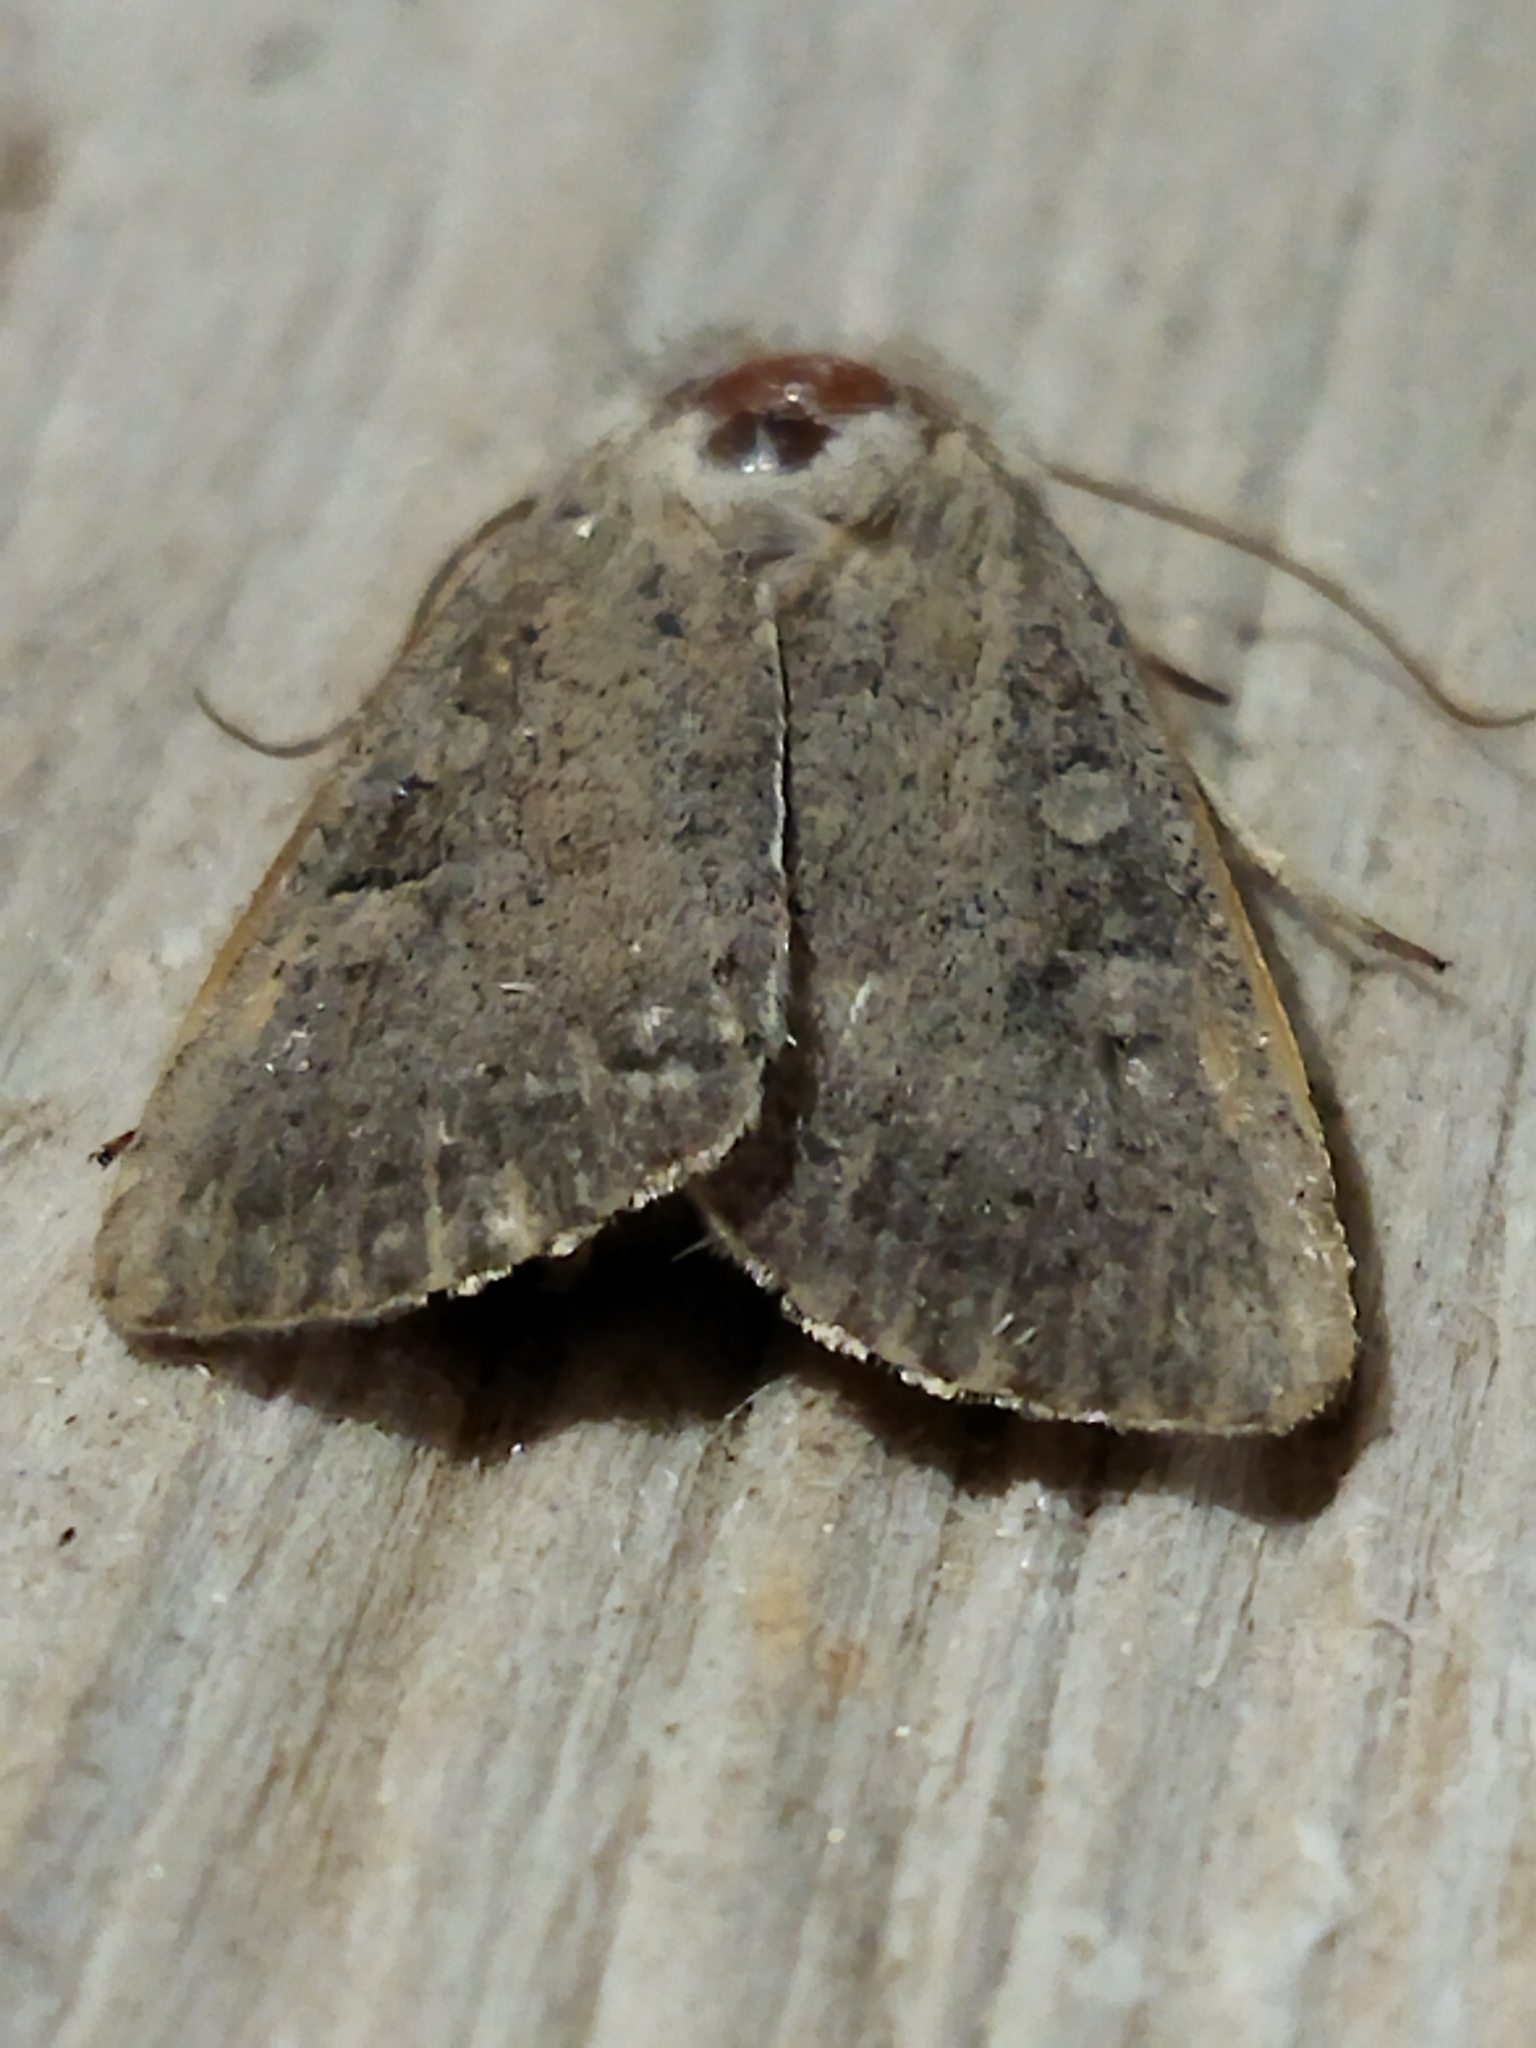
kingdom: Animalia
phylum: Arthropoda
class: Insecta
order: Lepidoptera
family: Noctuidae
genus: Xestia
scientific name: Xestia xanthographa
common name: Square-spot rustic
